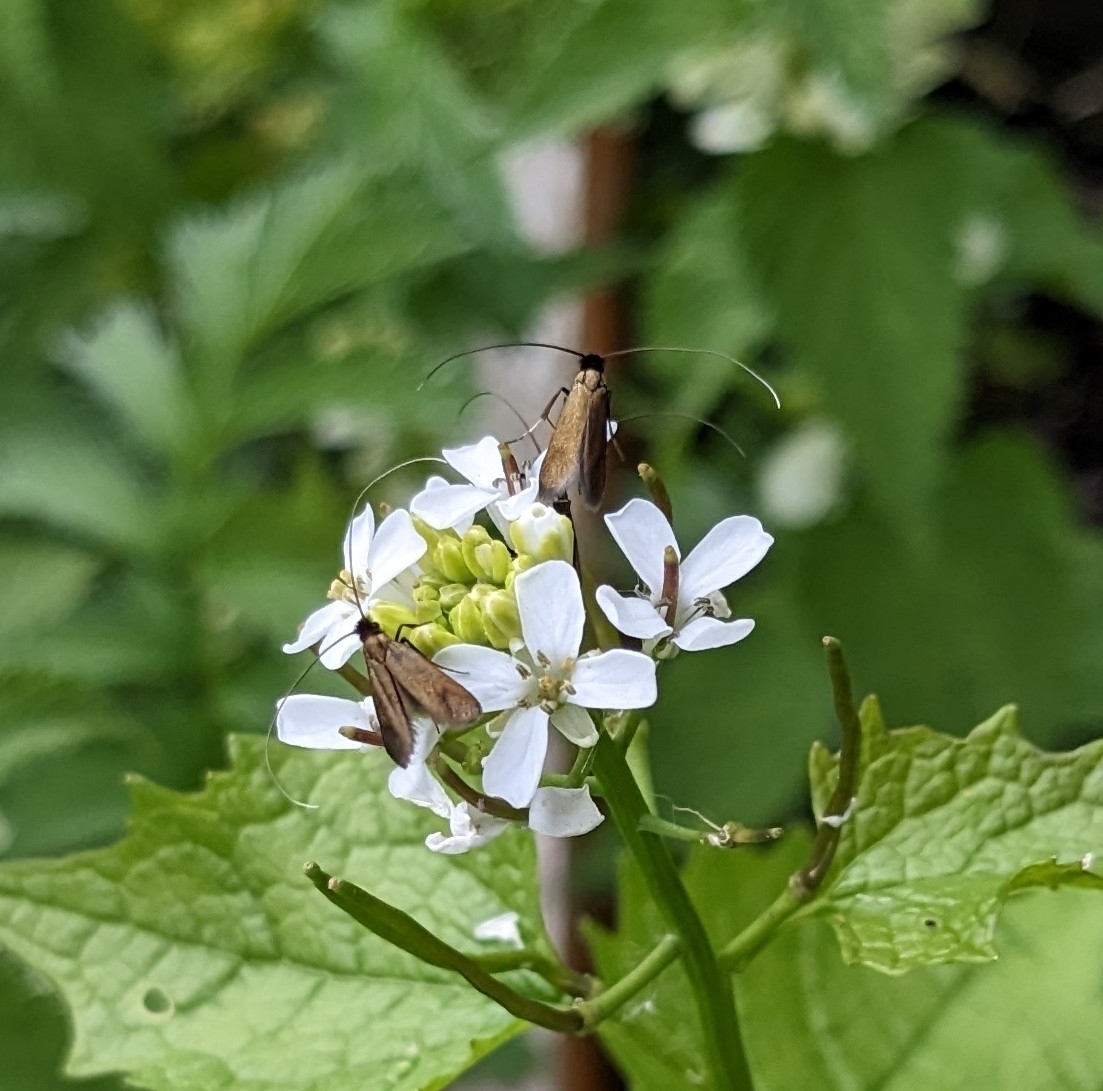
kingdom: Animalia
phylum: Arthropoda
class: Insecta
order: Lepidoptera
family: Adelidae
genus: Cauchas
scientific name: Cauchas rufimitrella
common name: Meadow long-horn
